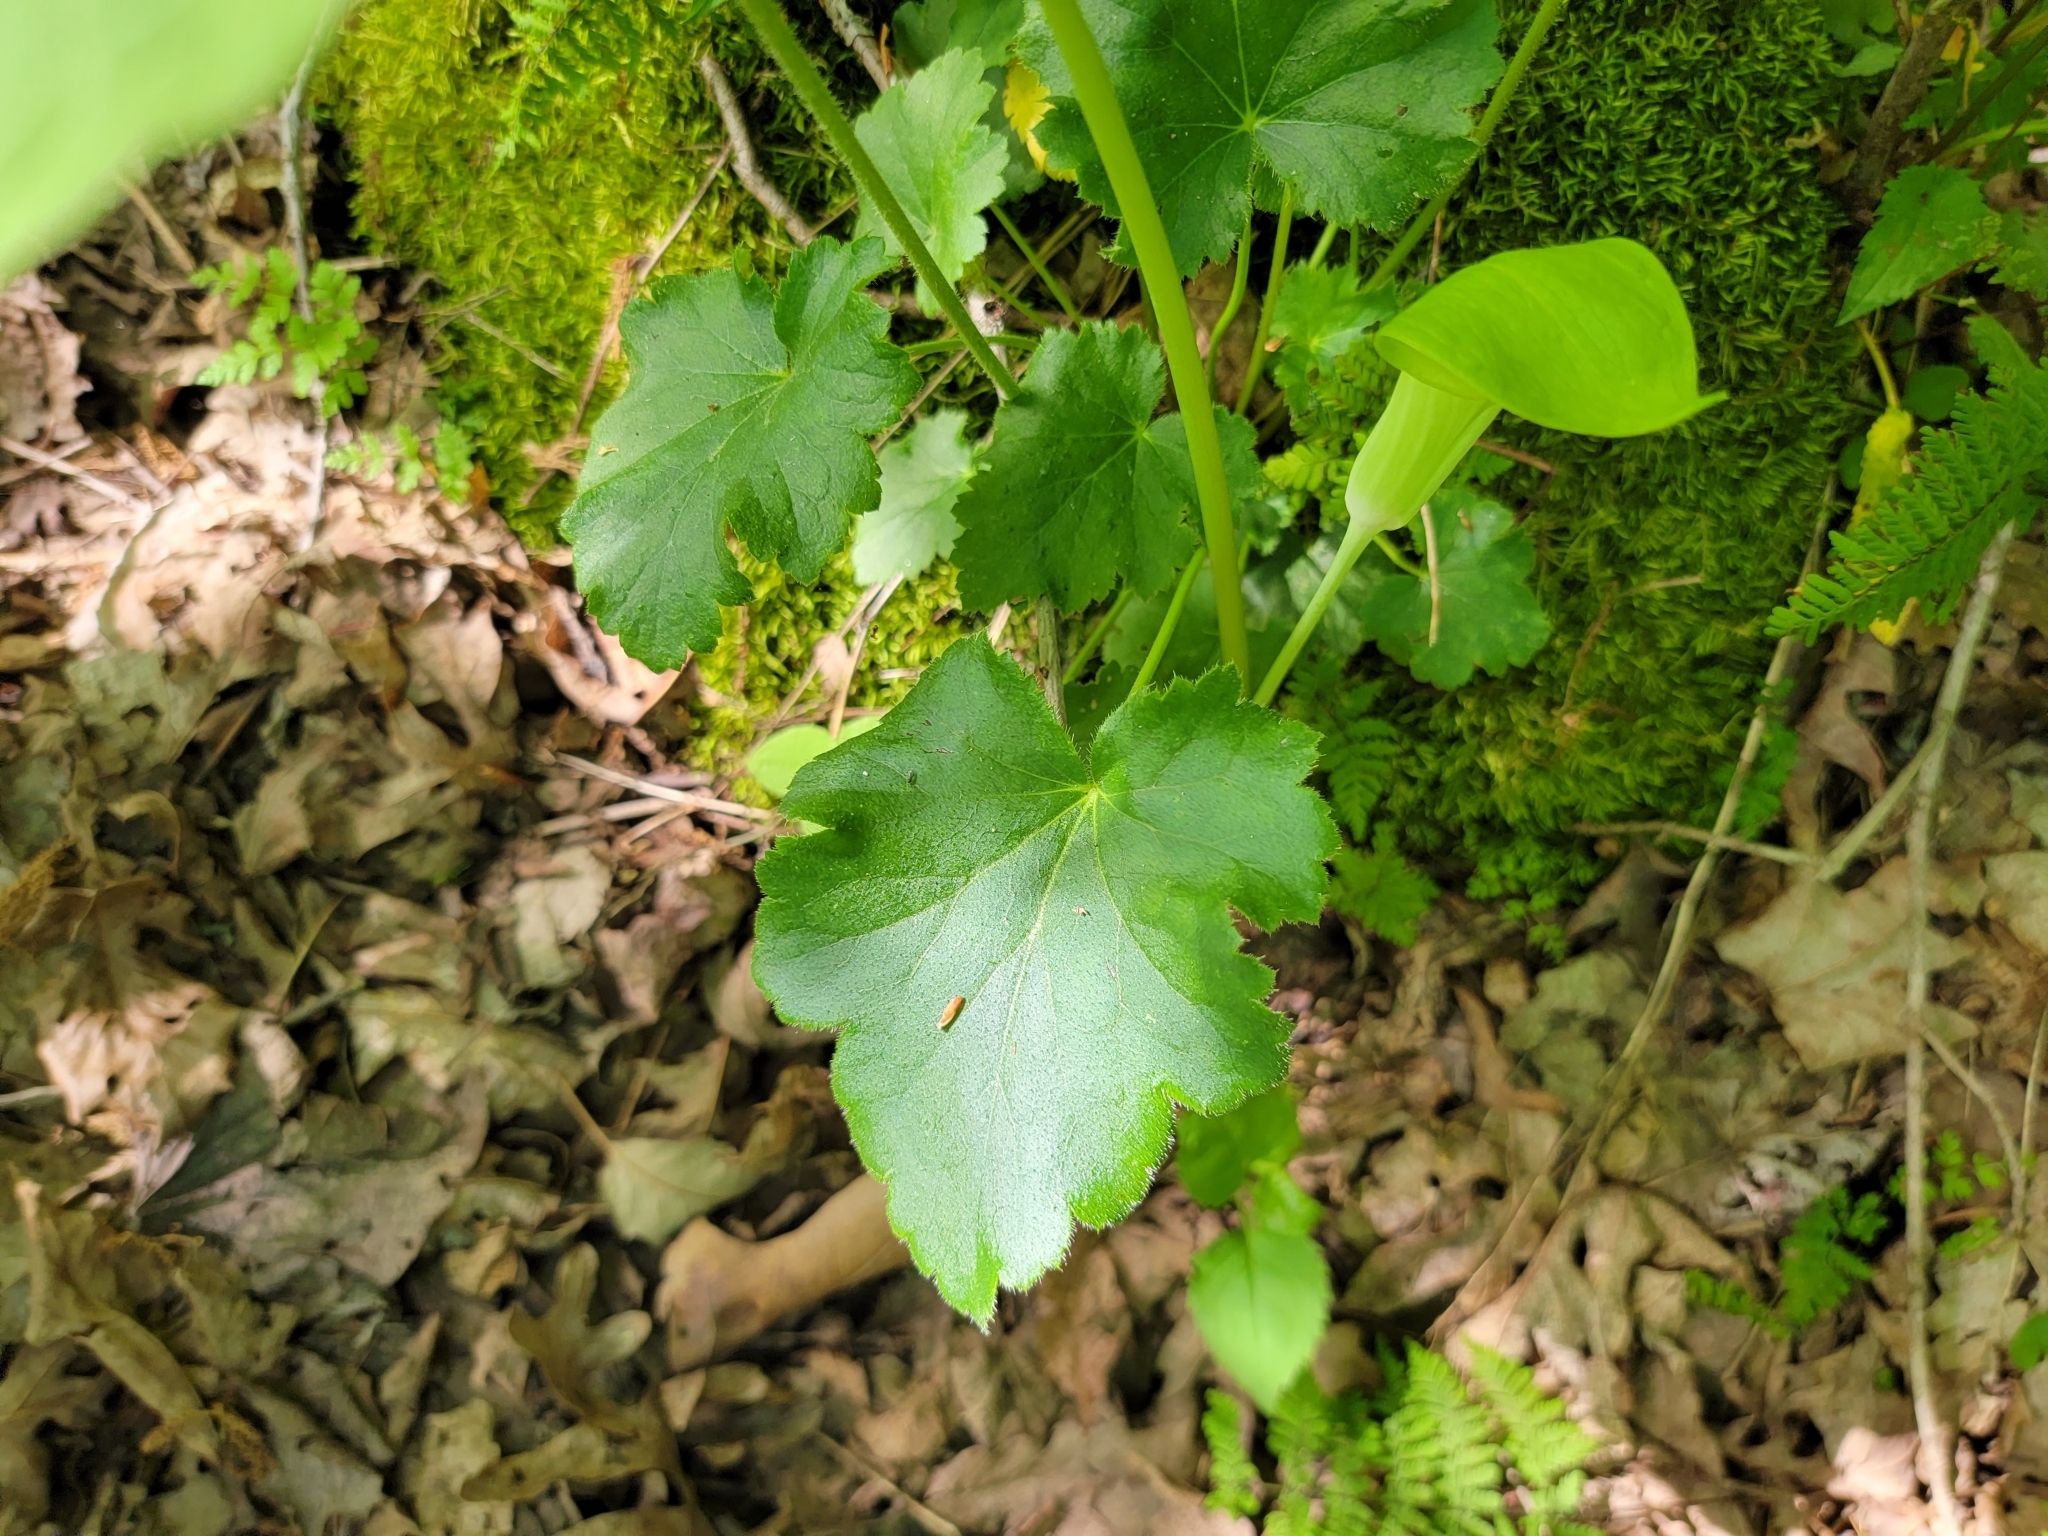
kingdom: Plantae
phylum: Tracheophyta
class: Magnoliopsida
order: Saxifragales
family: Saxifragaceae
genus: Heuchera
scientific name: Heuchera americana
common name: Alumroot
